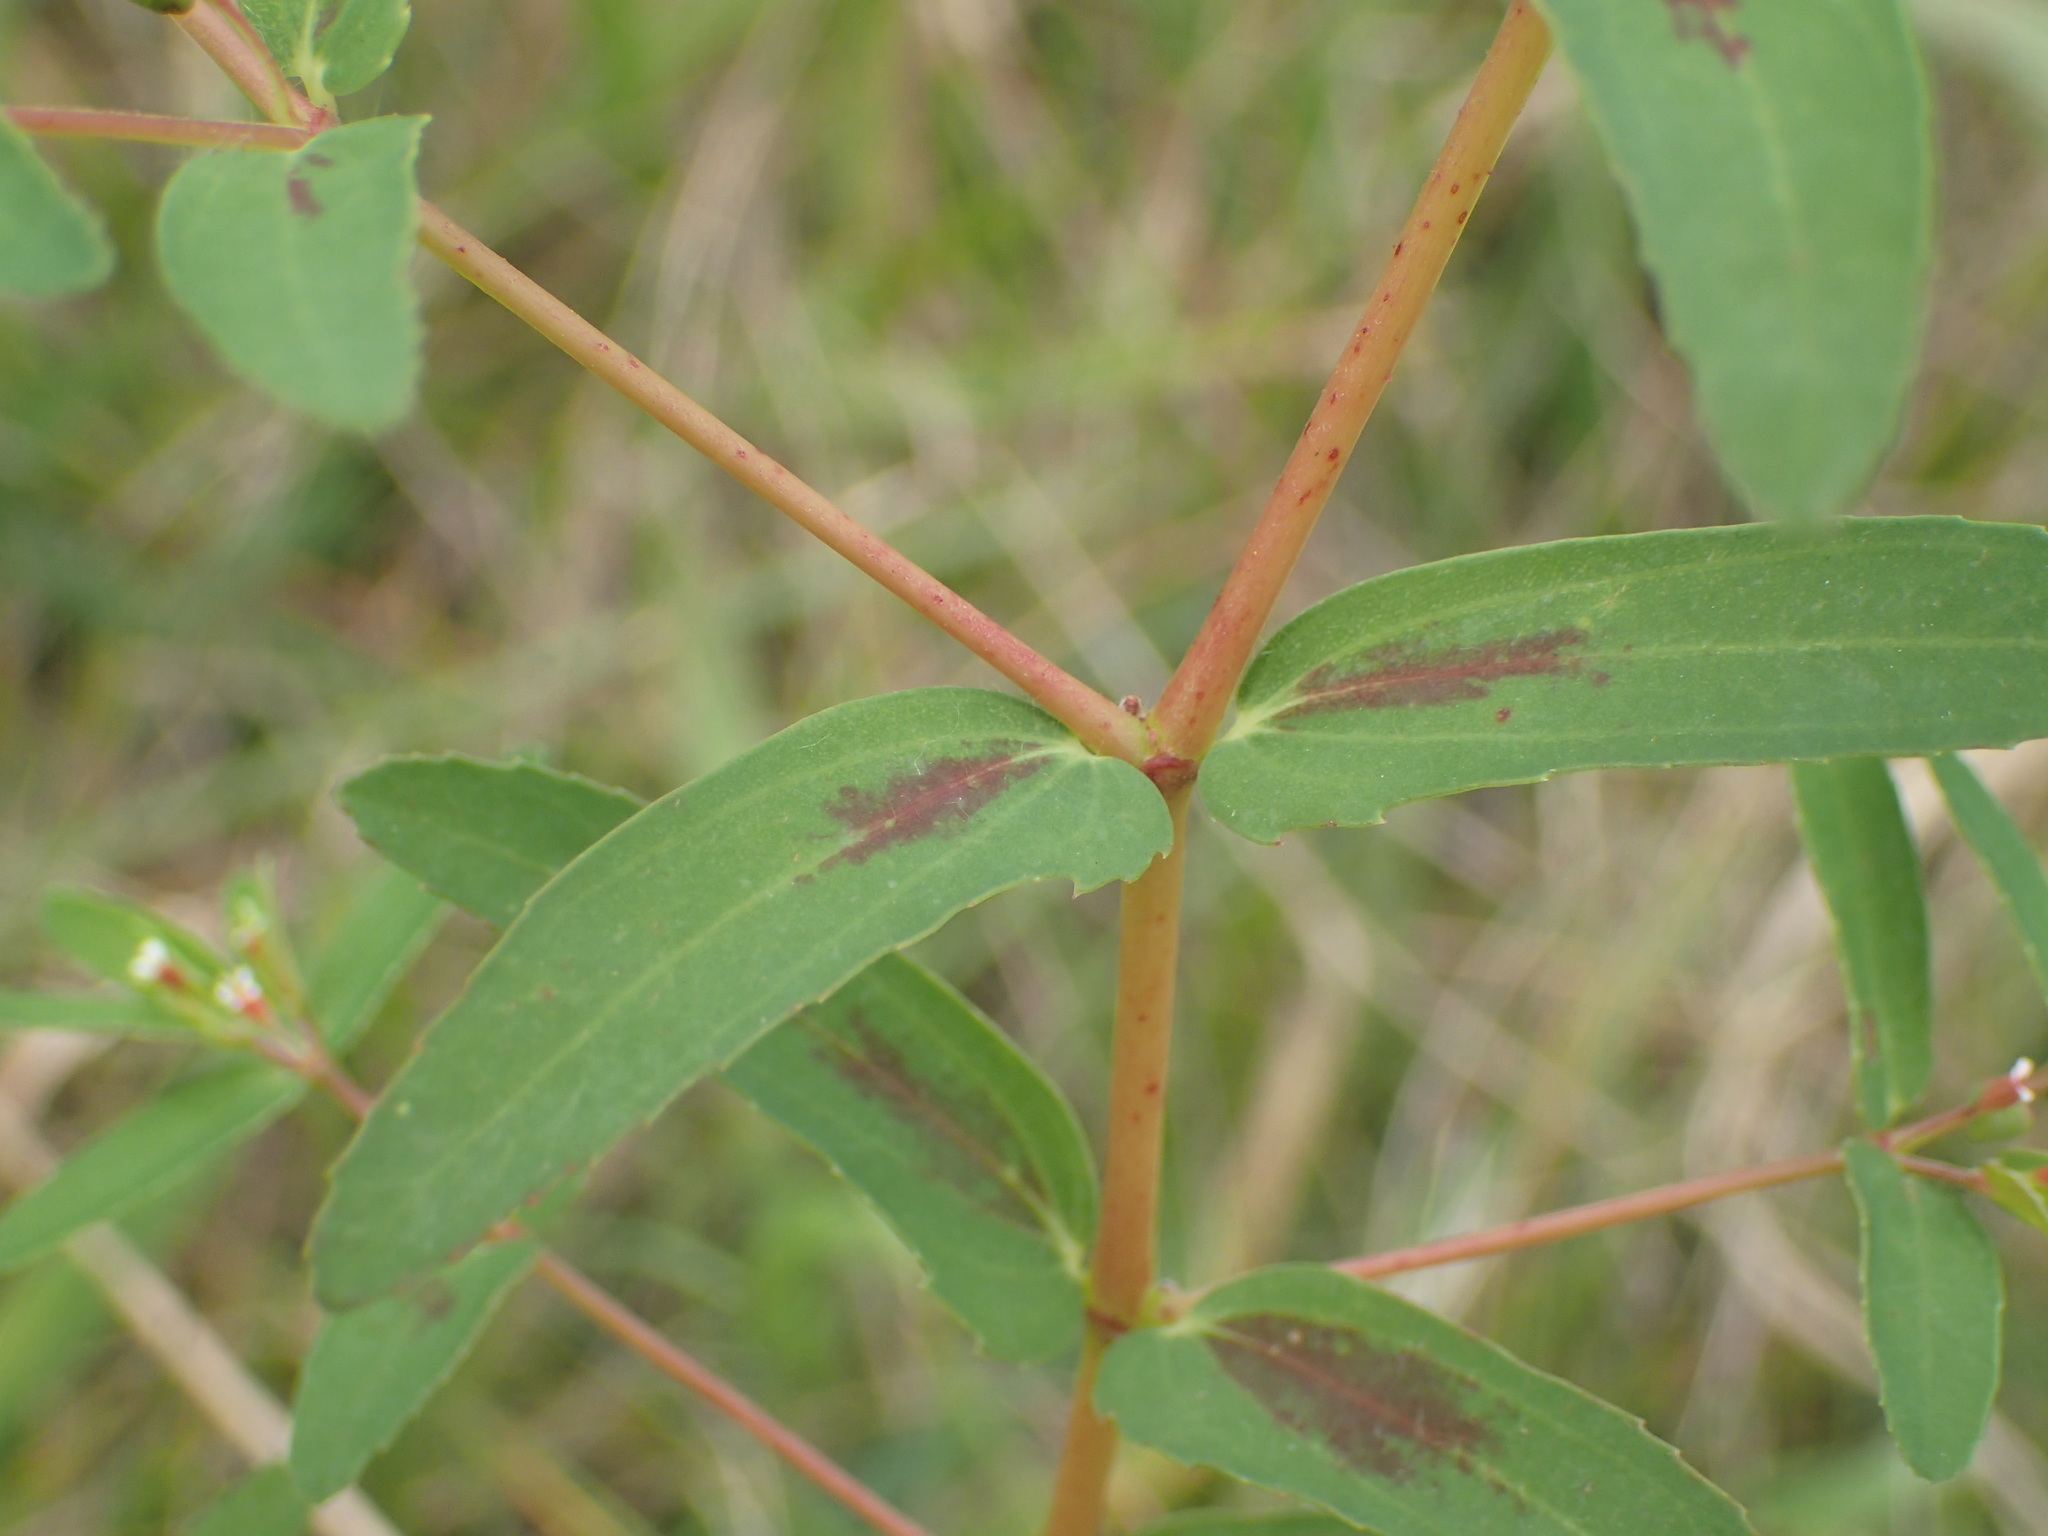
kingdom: Plantae
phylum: Tracheophyta
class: Magnoliopsida
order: Malpighiales
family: Euphorbiaceae
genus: Euphorbia
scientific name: Euphorbia nutans
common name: Eyebane
